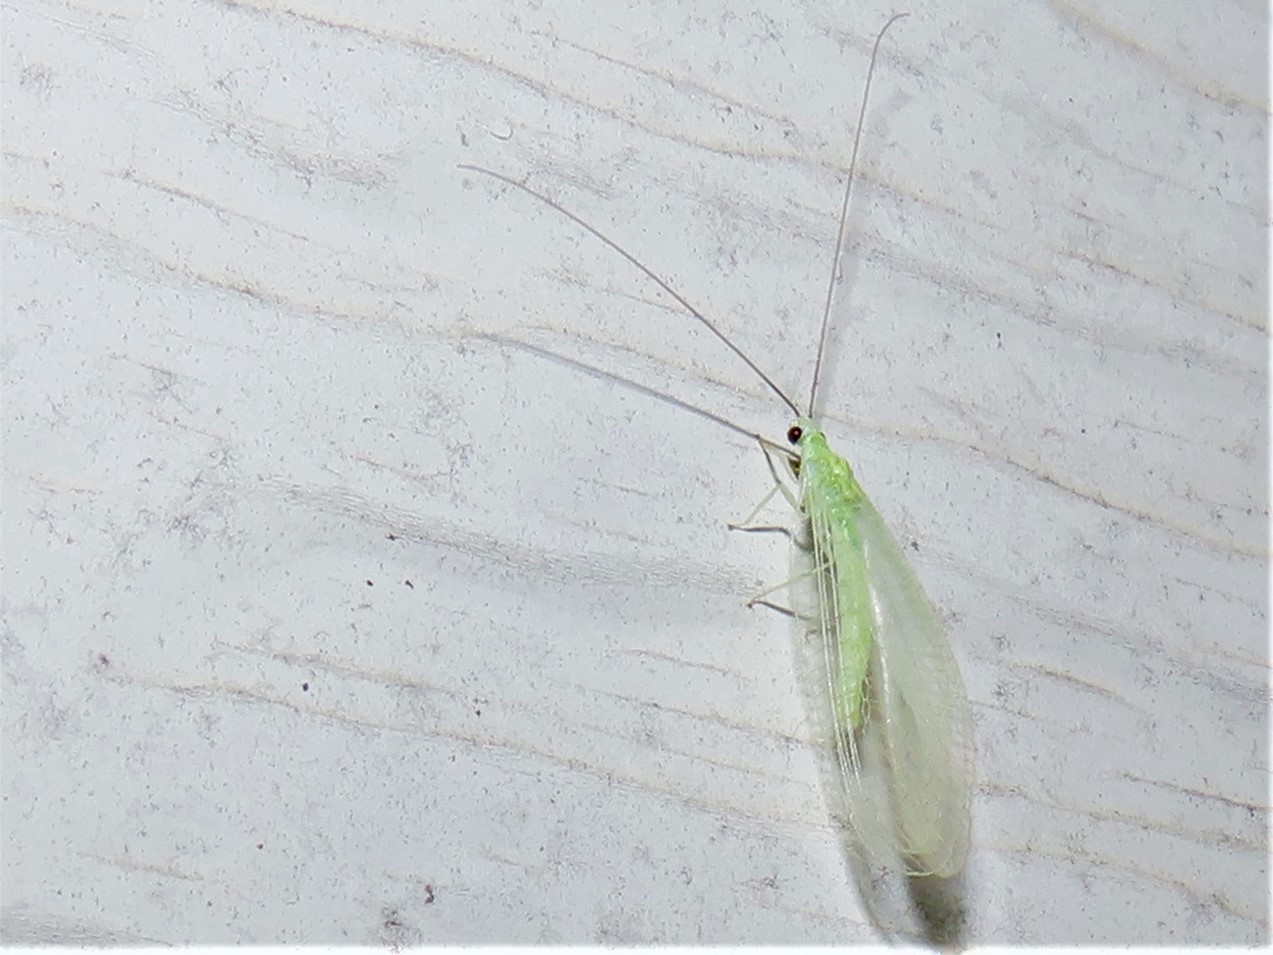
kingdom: Animalia
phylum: Arthropoda
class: Insecta
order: Neuroptera
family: Chrysopidae
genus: Chrysopa
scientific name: Chrysopa nigricornis
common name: Black-horned green lacewing
